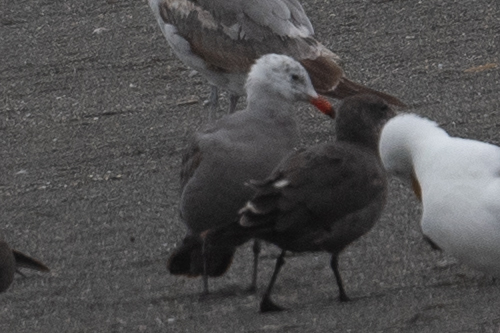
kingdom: Animalia
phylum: Chordata
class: Aves
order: Charadriiformes
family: Laridae
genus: Larus
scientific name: Larus heermanni
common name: Heermann's gull
